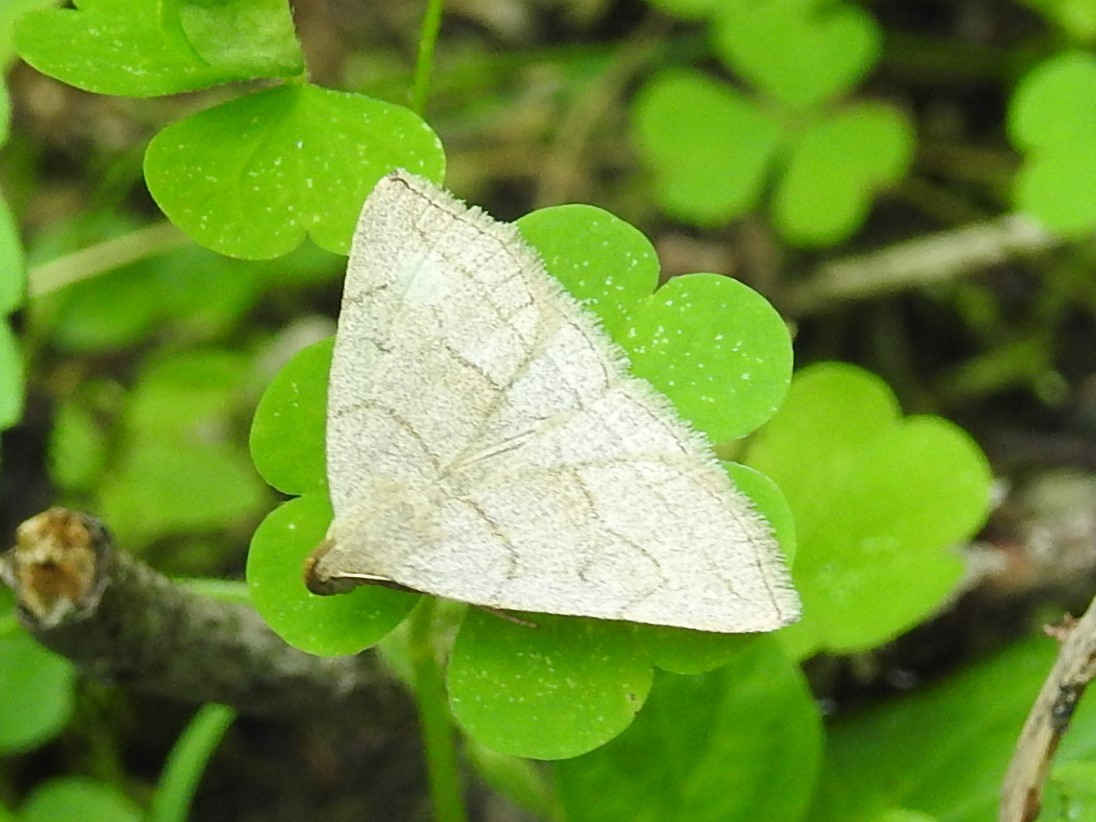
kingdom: Animalia
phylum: Arthropoda
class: Insecta
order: Lepidoptera
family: Erebidae
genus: Zanclognatha
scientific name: Zanclognatha pedipilalis
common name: Grayish fan-foot
